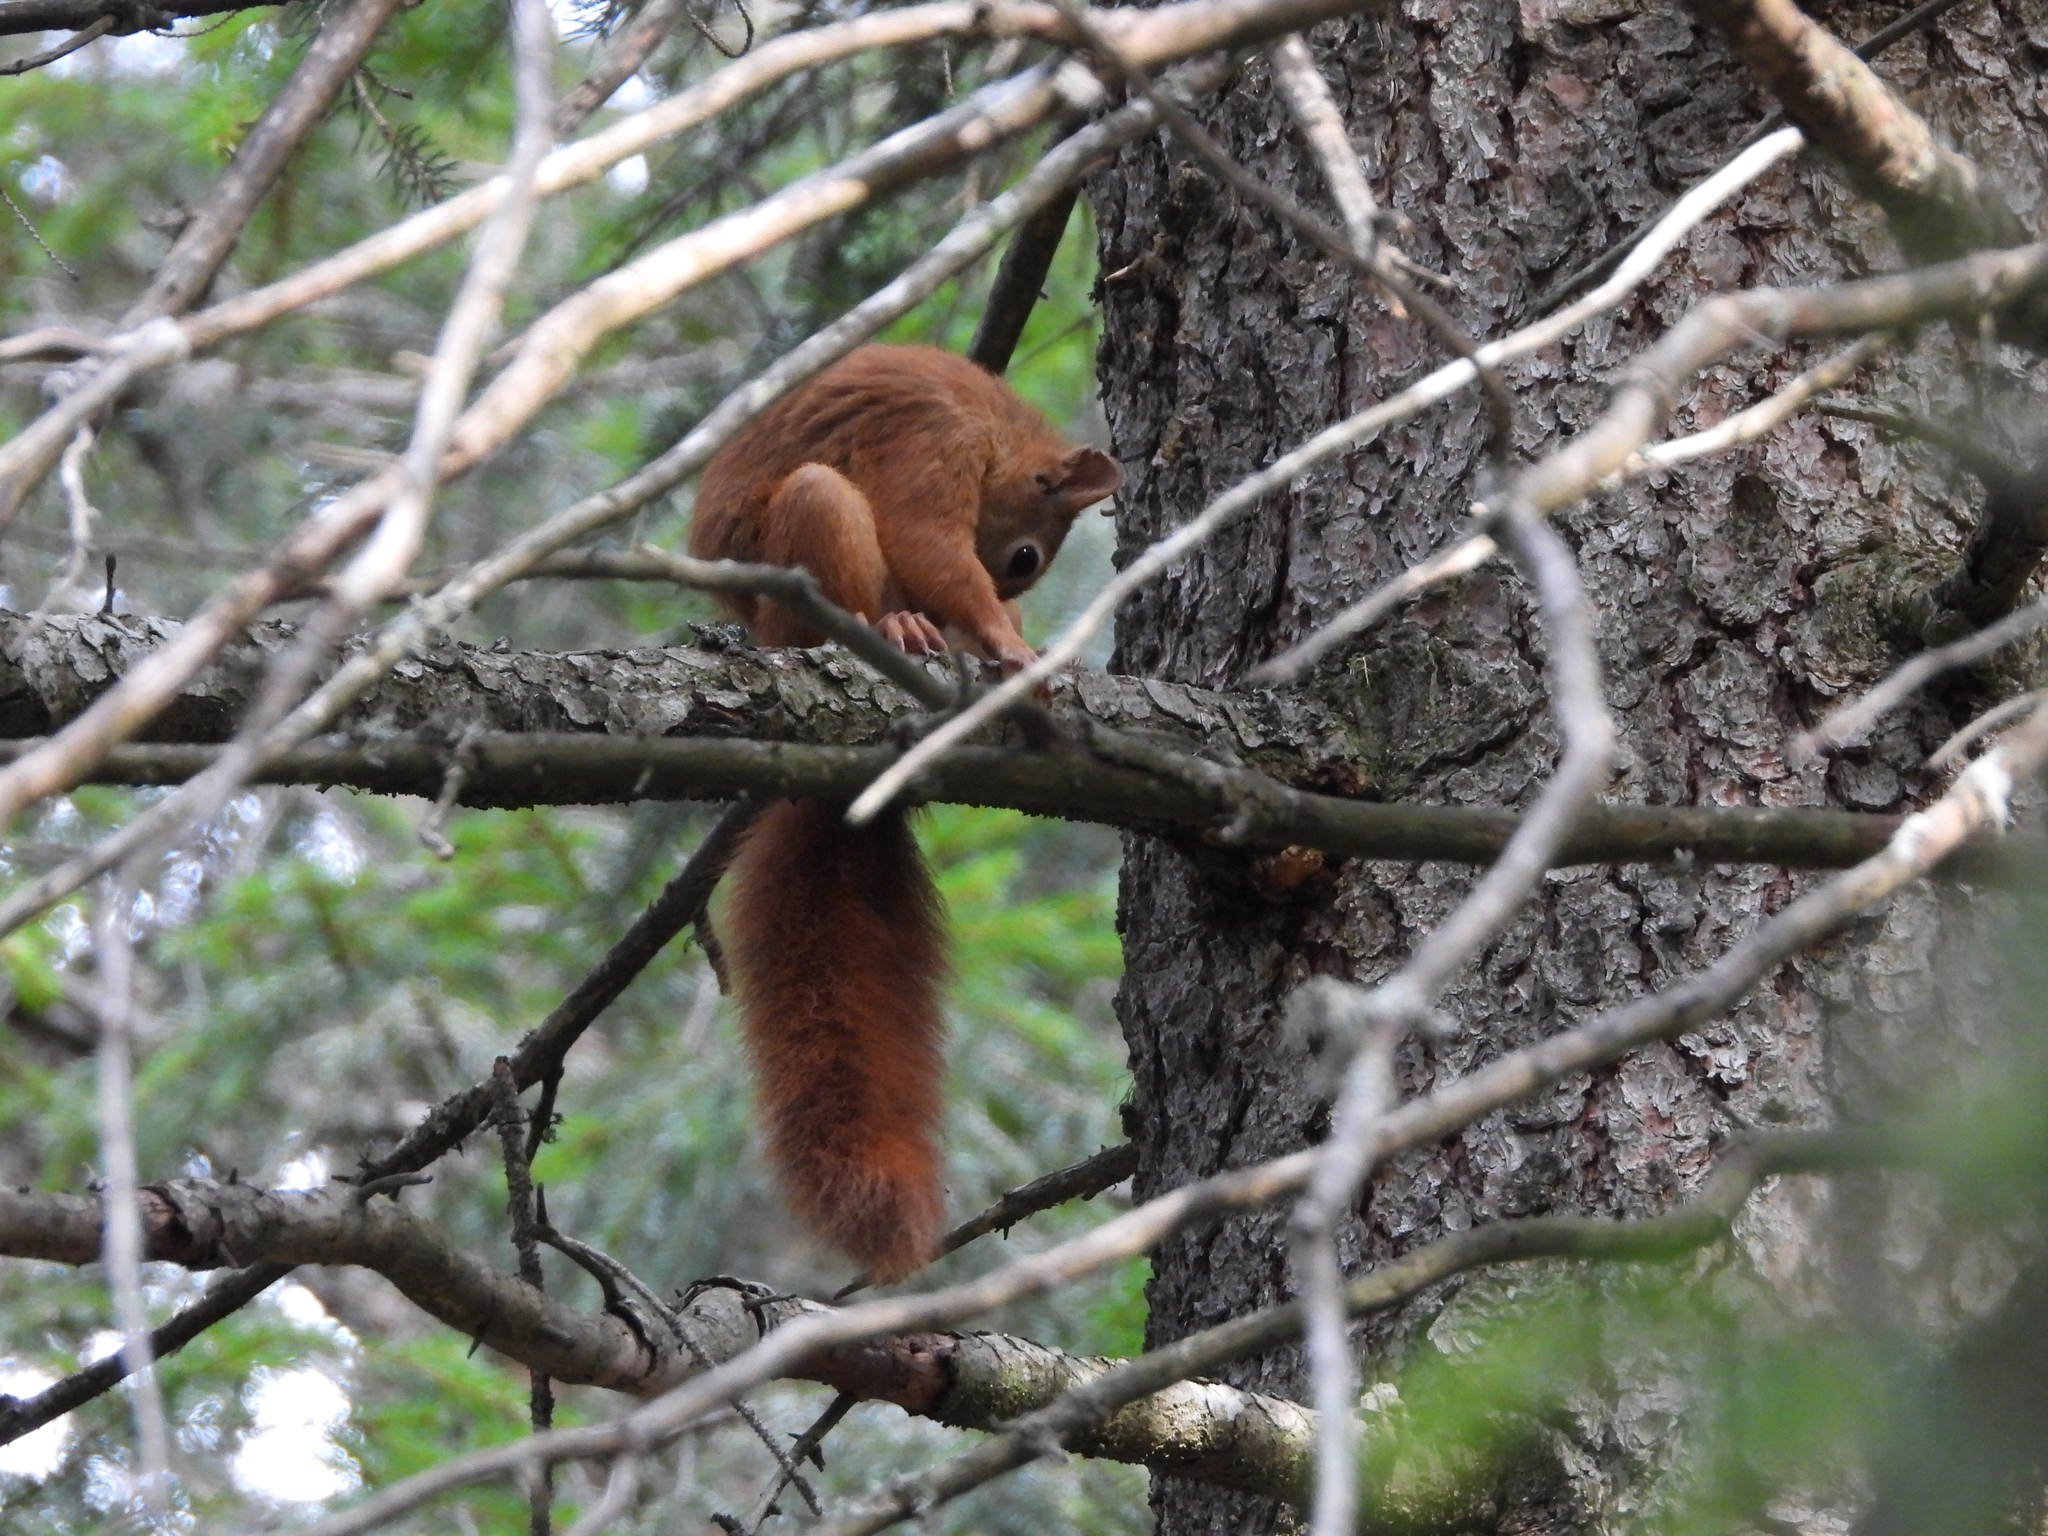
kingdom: Animalia
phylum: Chordata
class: Mammalia
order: Rodentia
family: Sciuridae
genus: Sciurus
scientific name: Sciurus vulgaris
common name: Eurasian red squirrel
